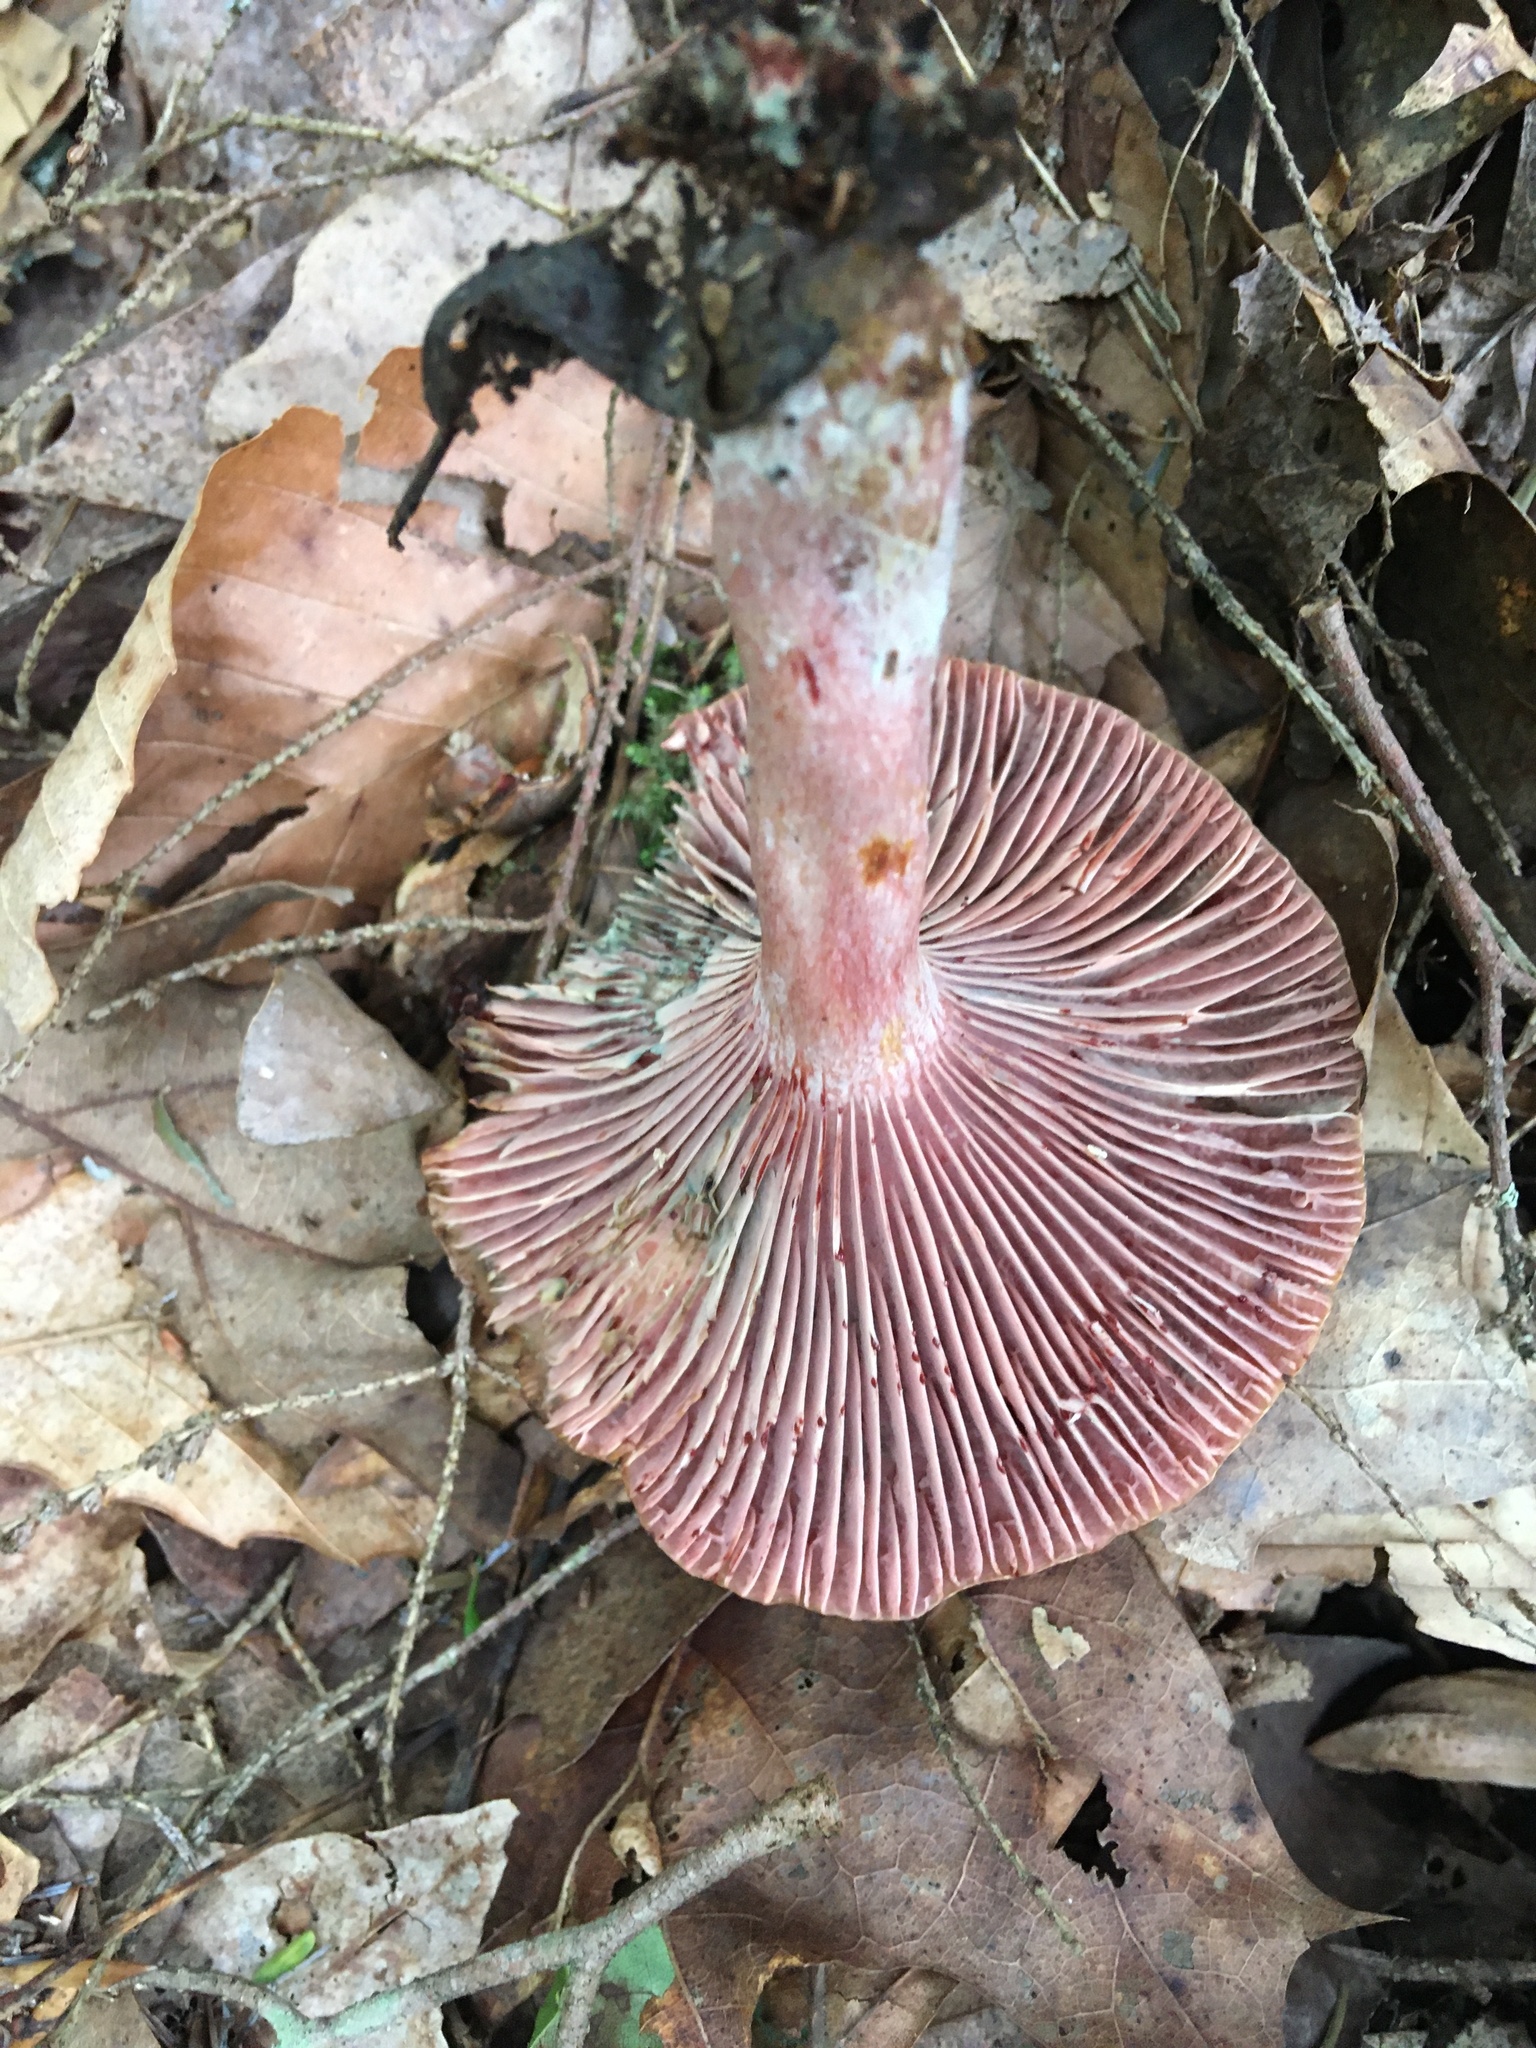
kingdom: Fungi
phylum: Basidiomycota
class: Agaricomycetes
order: Russulales
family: Russulaceae
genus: Lactarius
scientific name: Lactarius paradoxus
